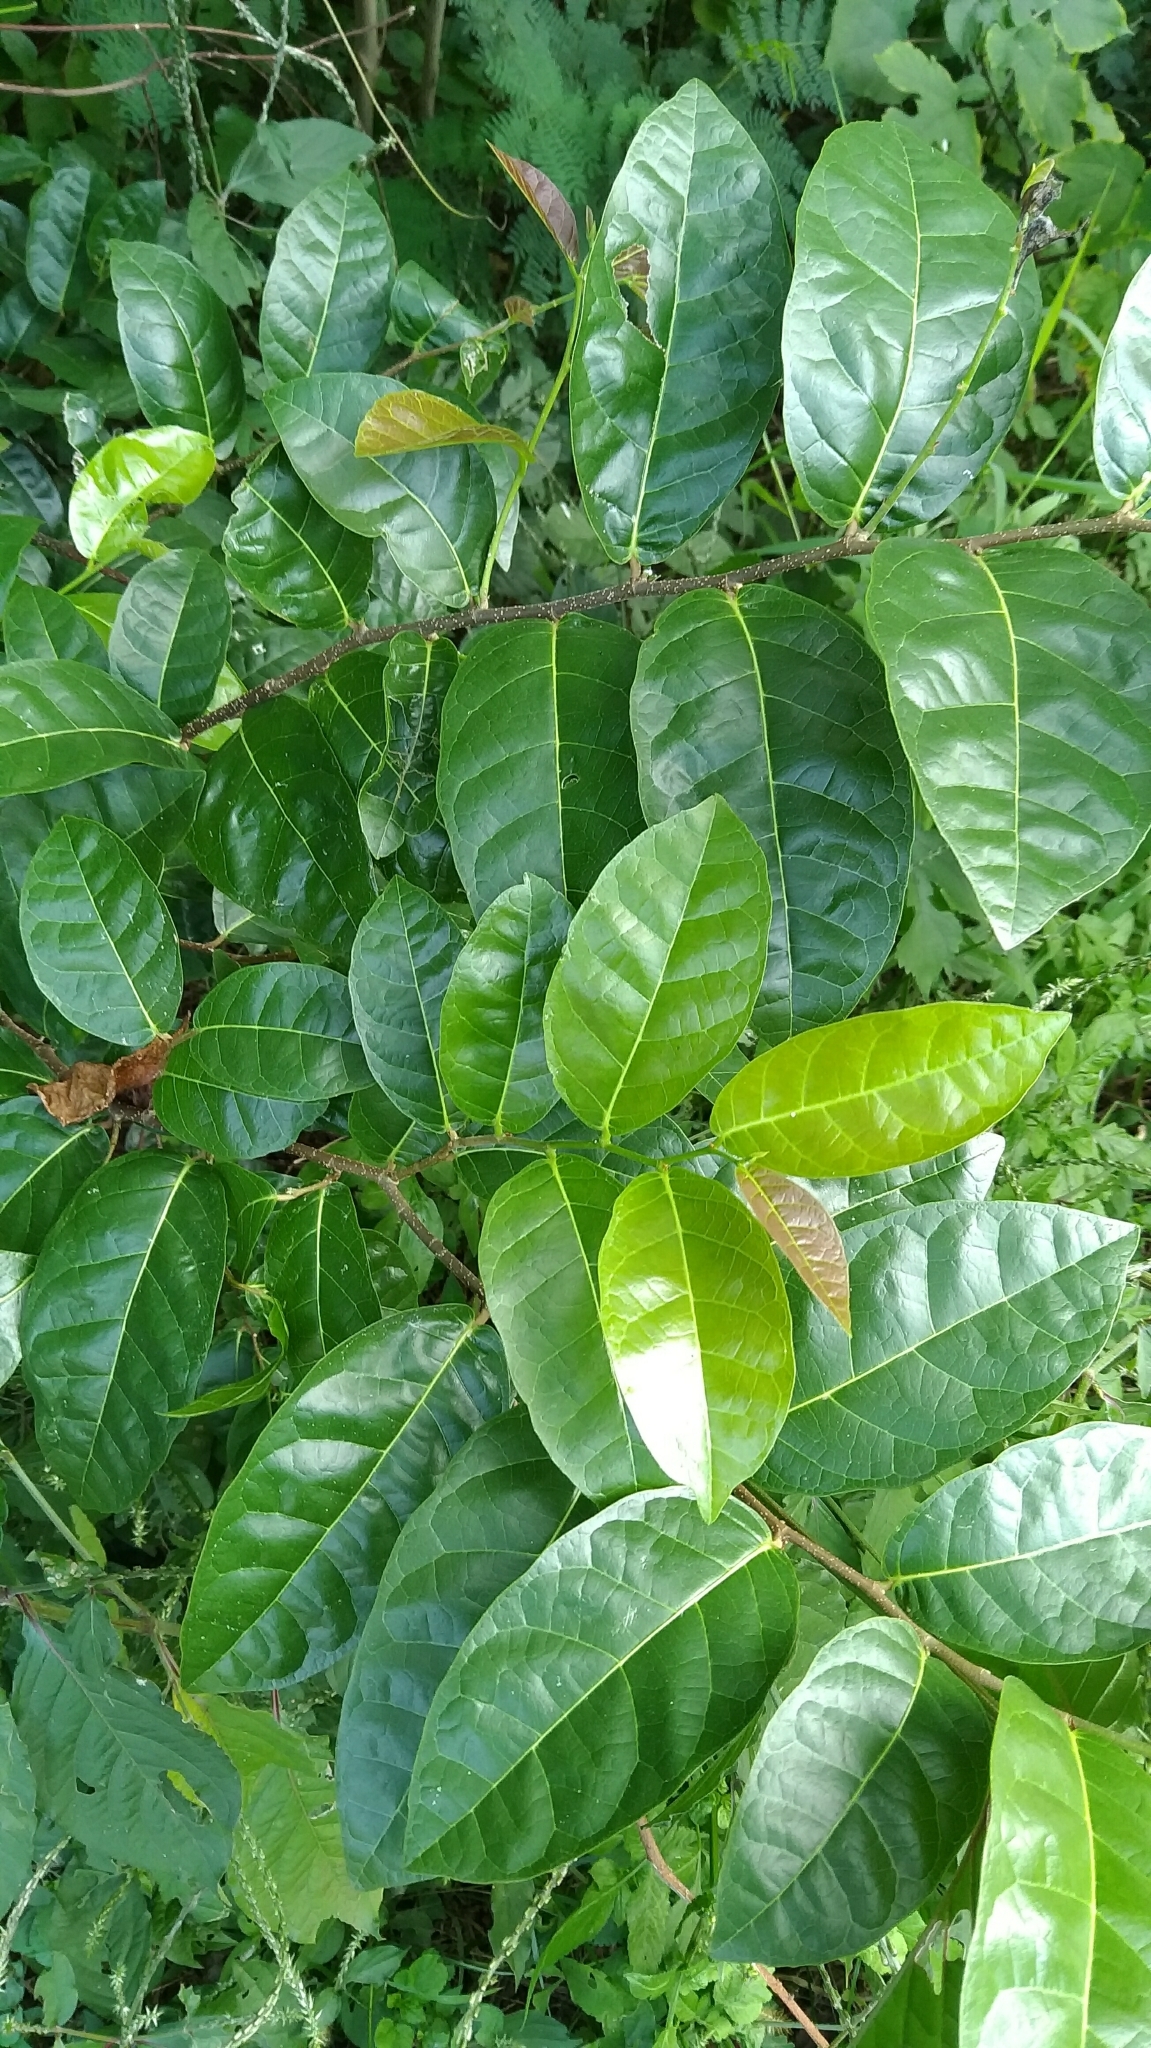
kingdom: Plantae
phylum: Tracheophyta
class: Magnoliopsida
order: Rosales
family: Moraceae
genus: Malaisia
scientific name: Malaisia scandens
